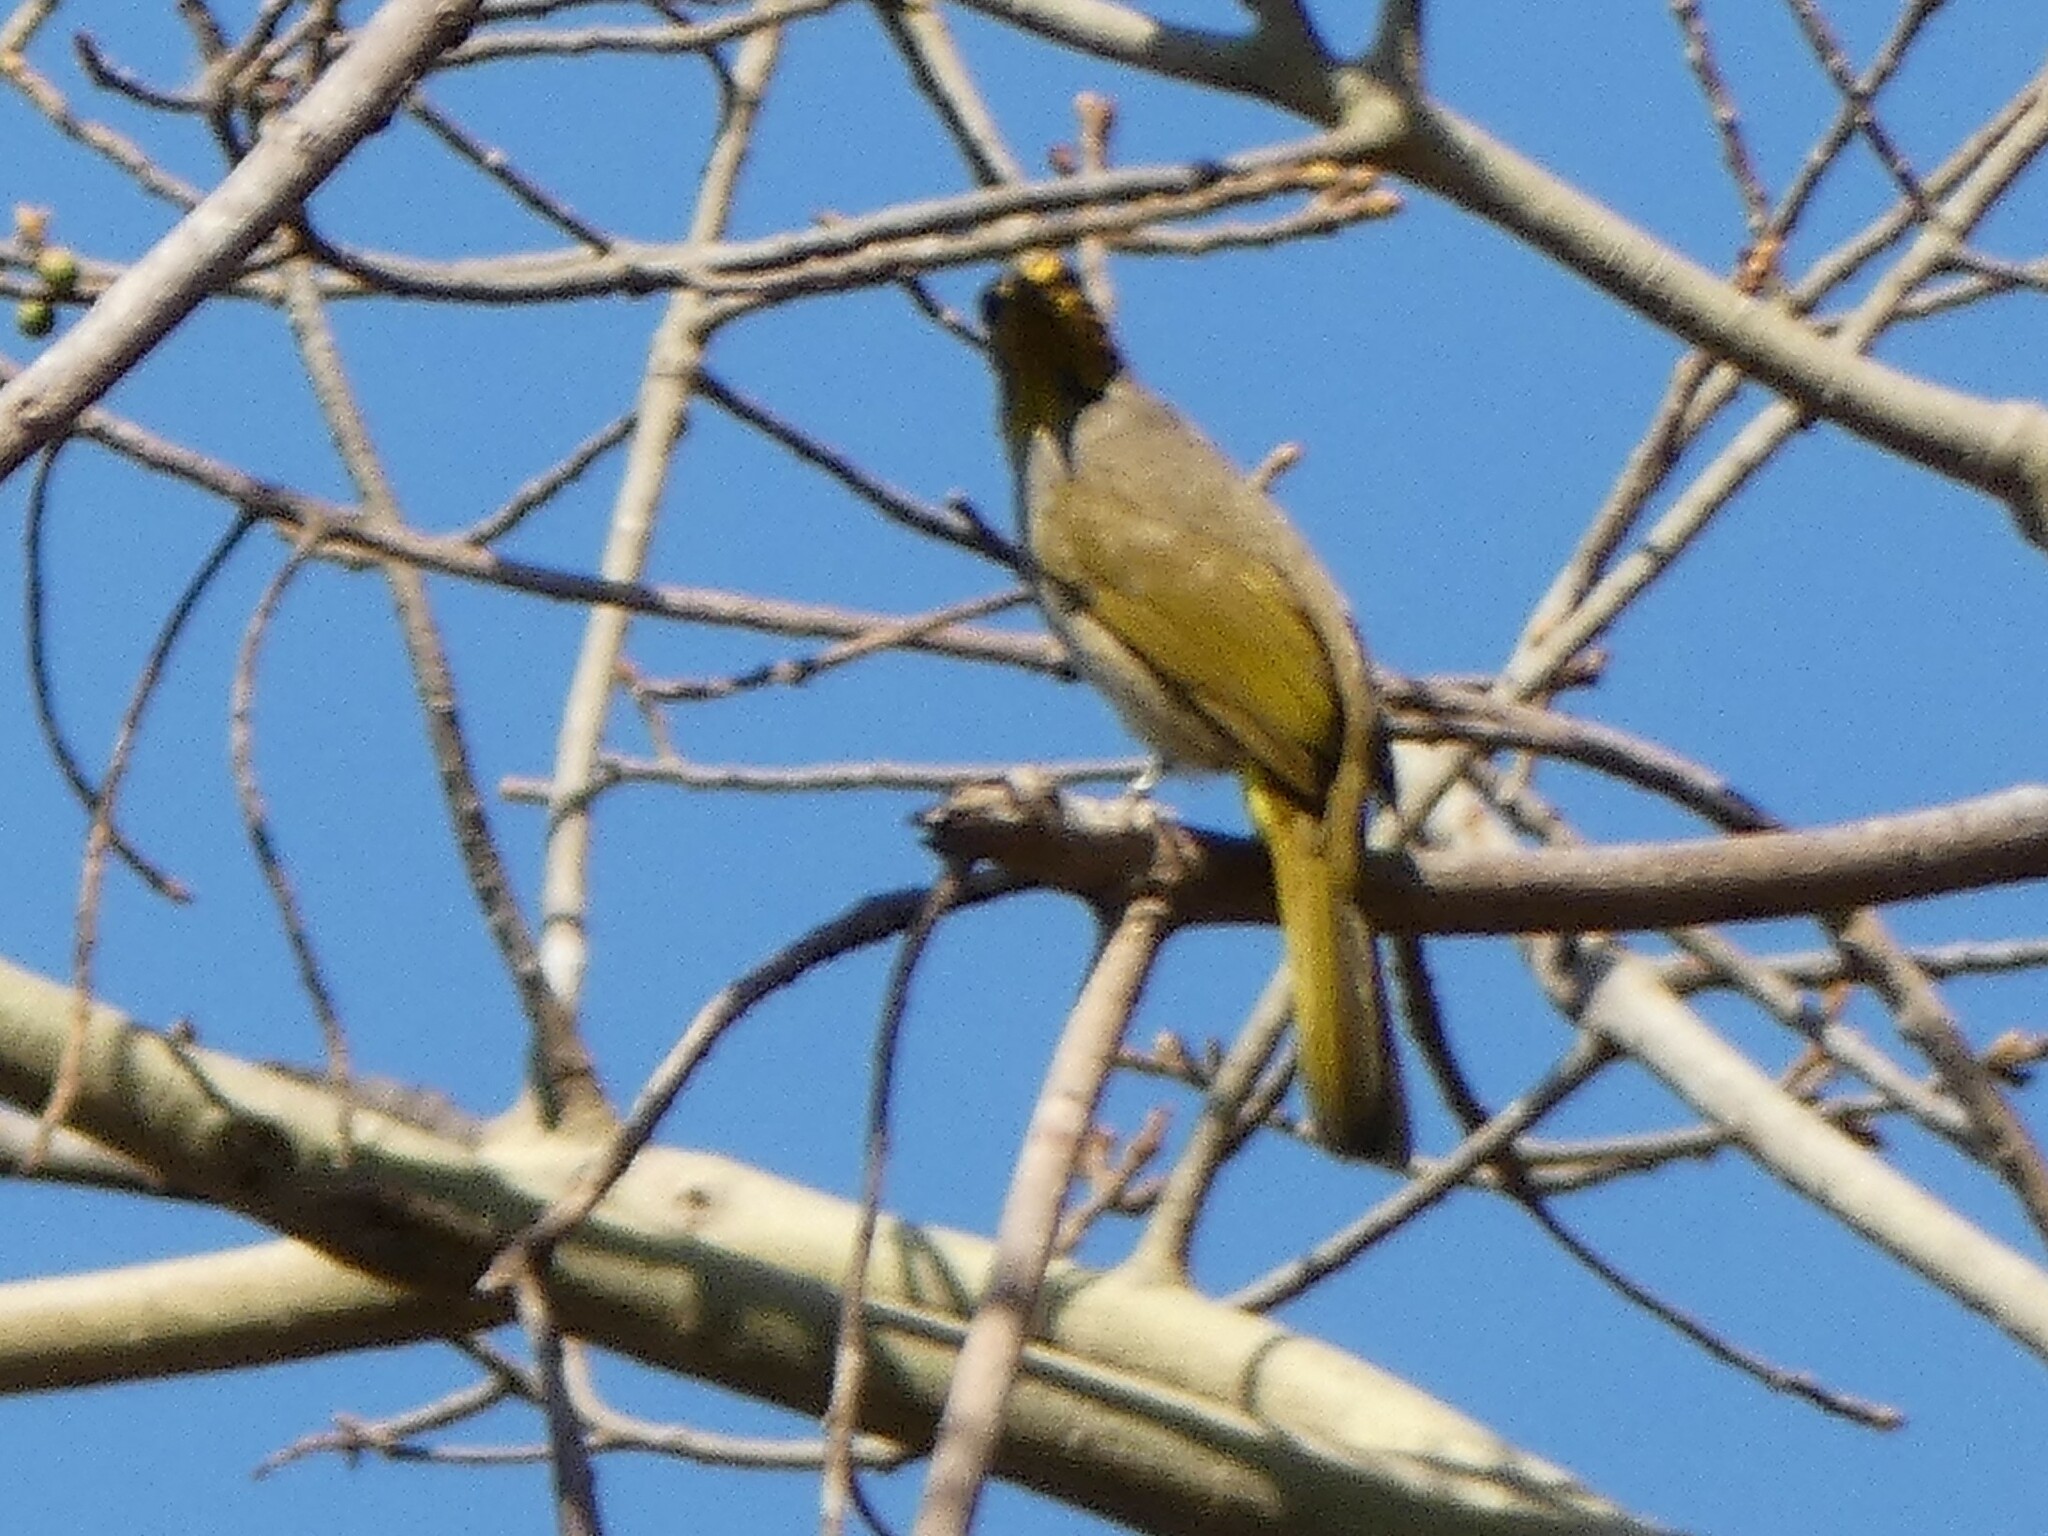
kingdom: Animalia
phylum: Chordata
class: Aves
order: Passeriformes
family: Pycnonotidae
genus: Pycnonotus
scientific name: Pycnonotus finlaysoni
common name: Stripe-throated bulbul
